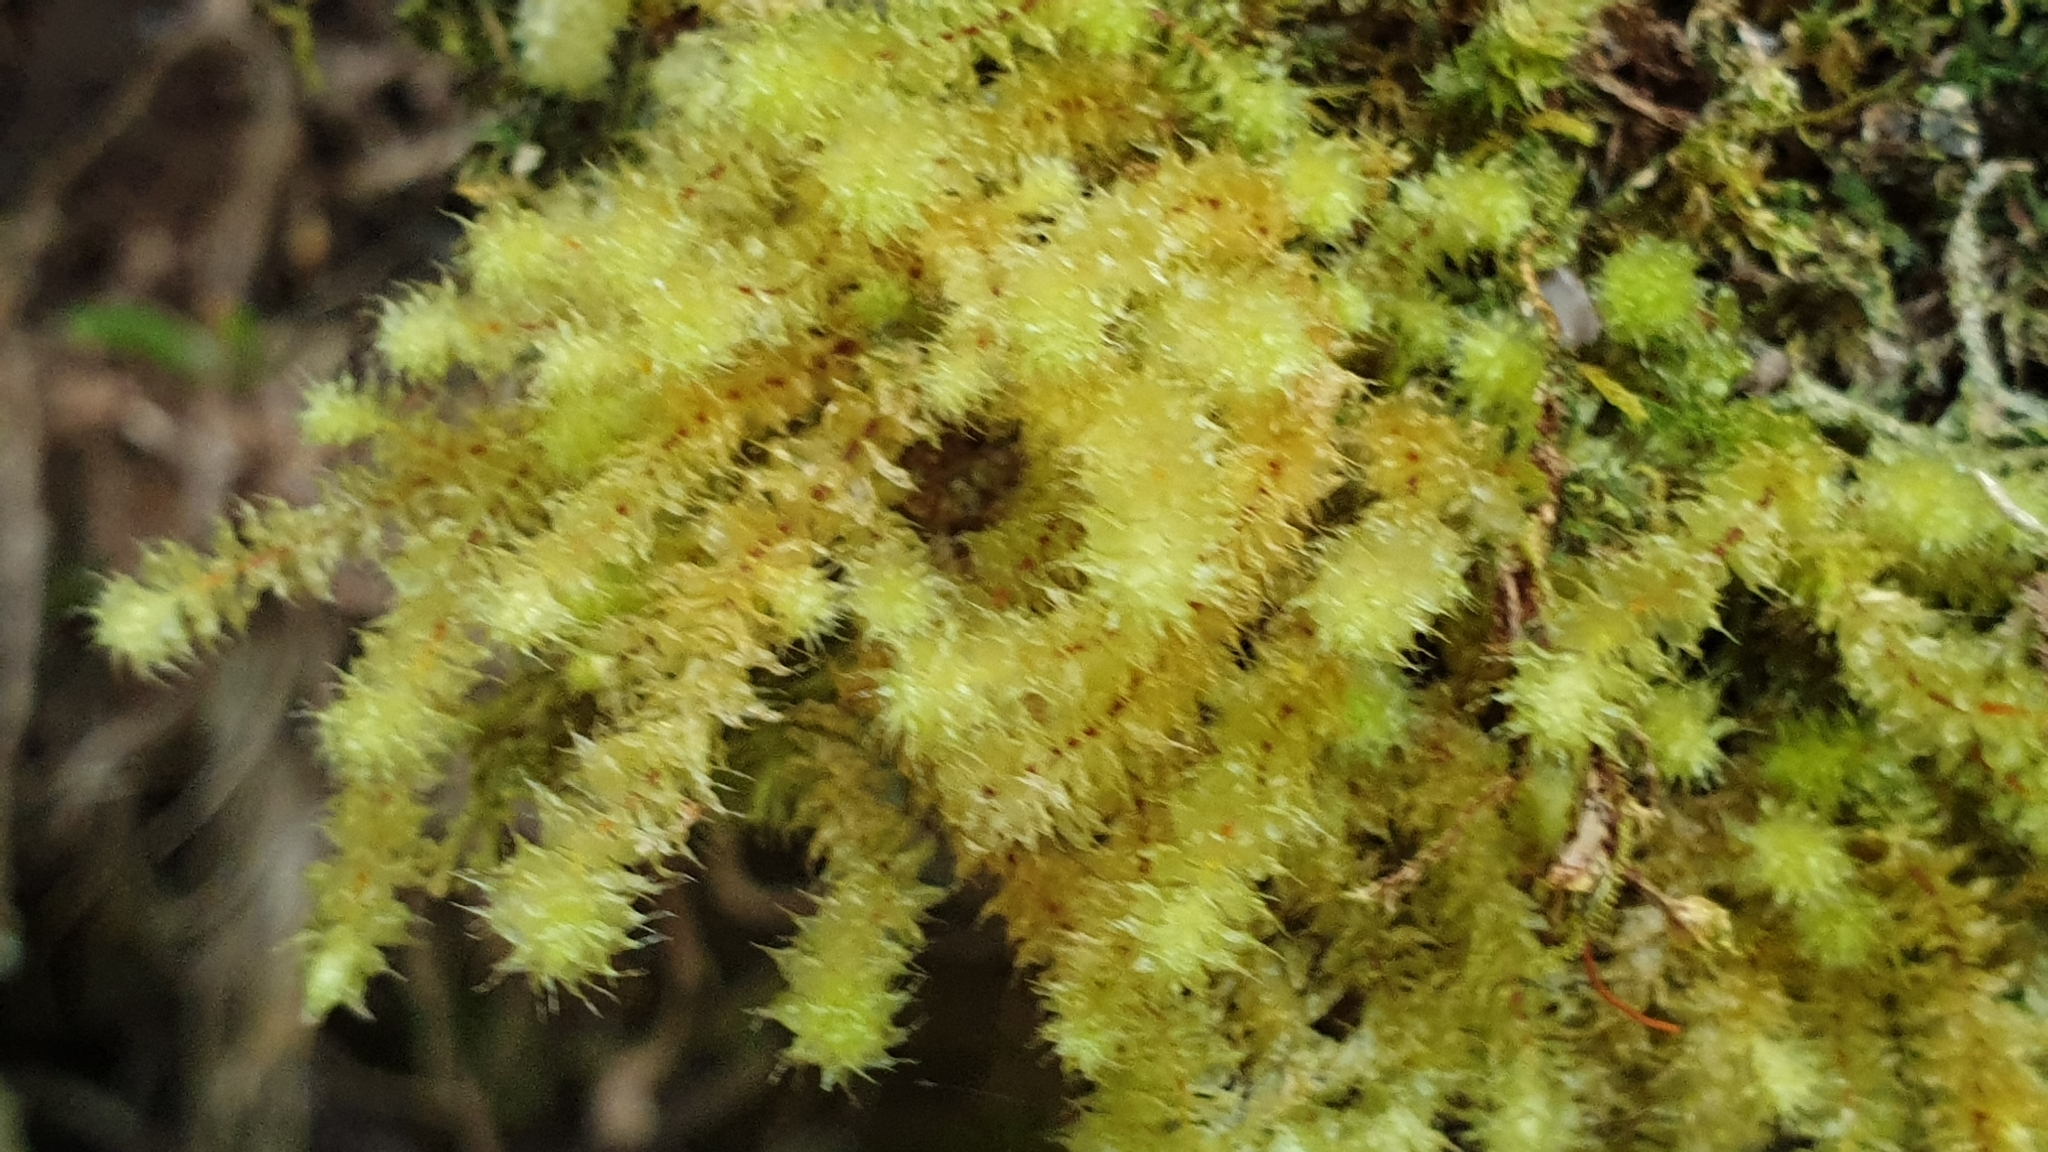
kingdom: Plantae
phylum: Bryophyta
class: Bryopsida
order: Ptychomniales
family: Ptychomniaceae
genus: Ptychomnion
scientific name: Ptychomnion aciculare
